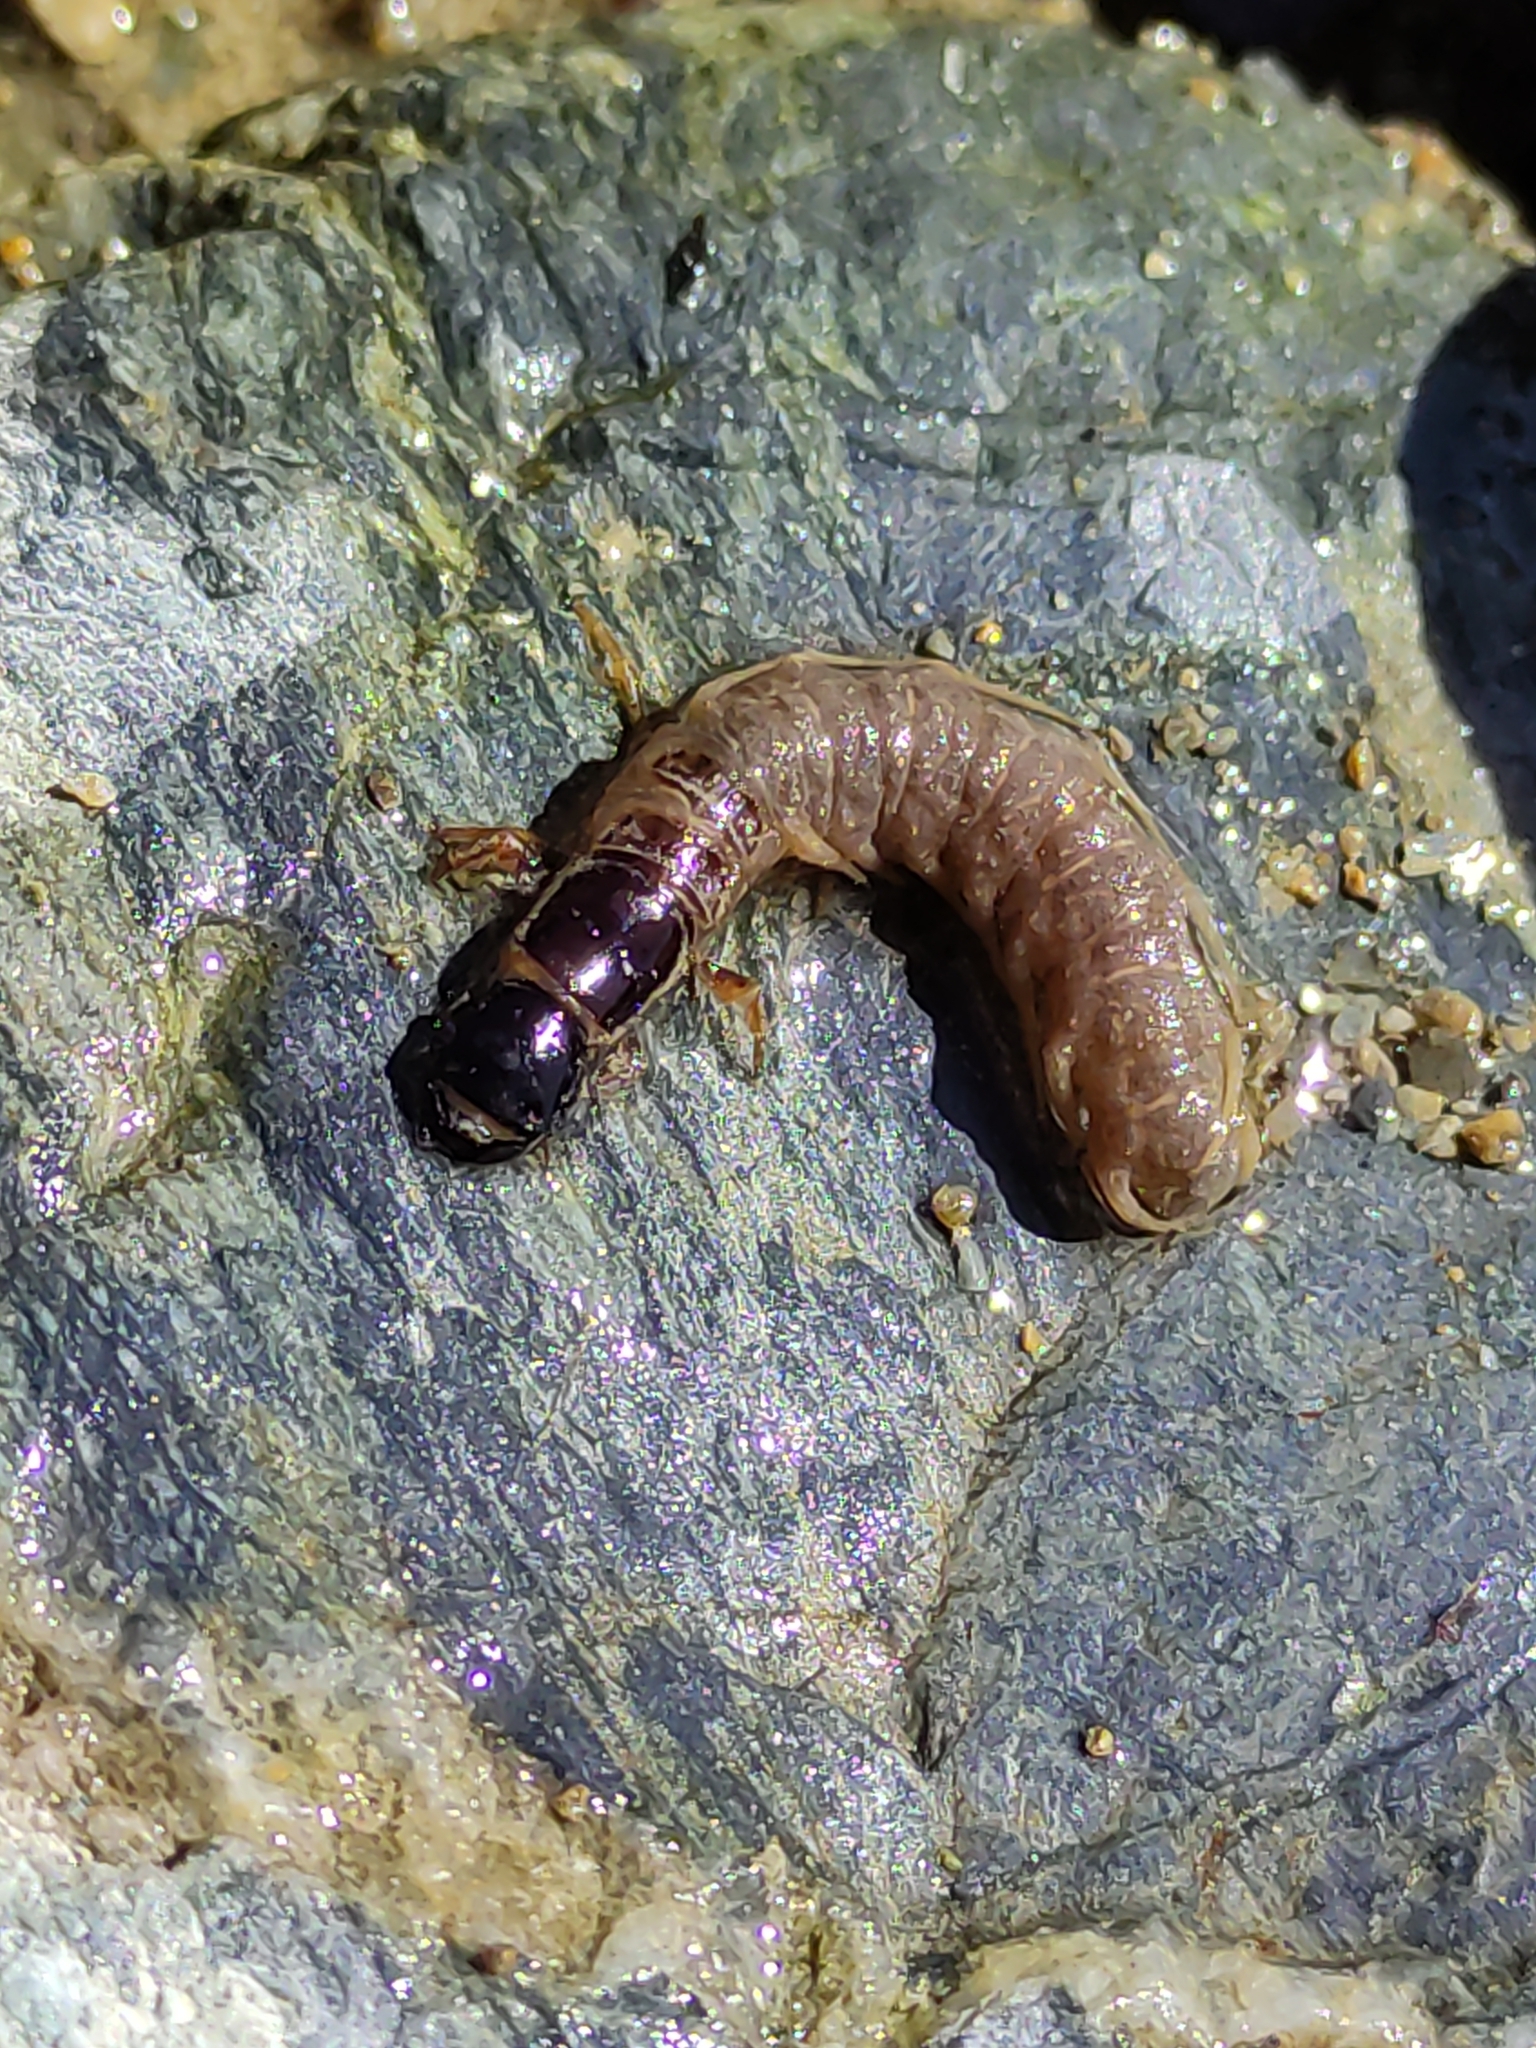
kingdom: Animalia
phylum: Arthropoda
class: Insecta
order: Megaloptera
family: Corydalidae
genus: Archichauliodes
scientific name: Archichauliodes diversus
